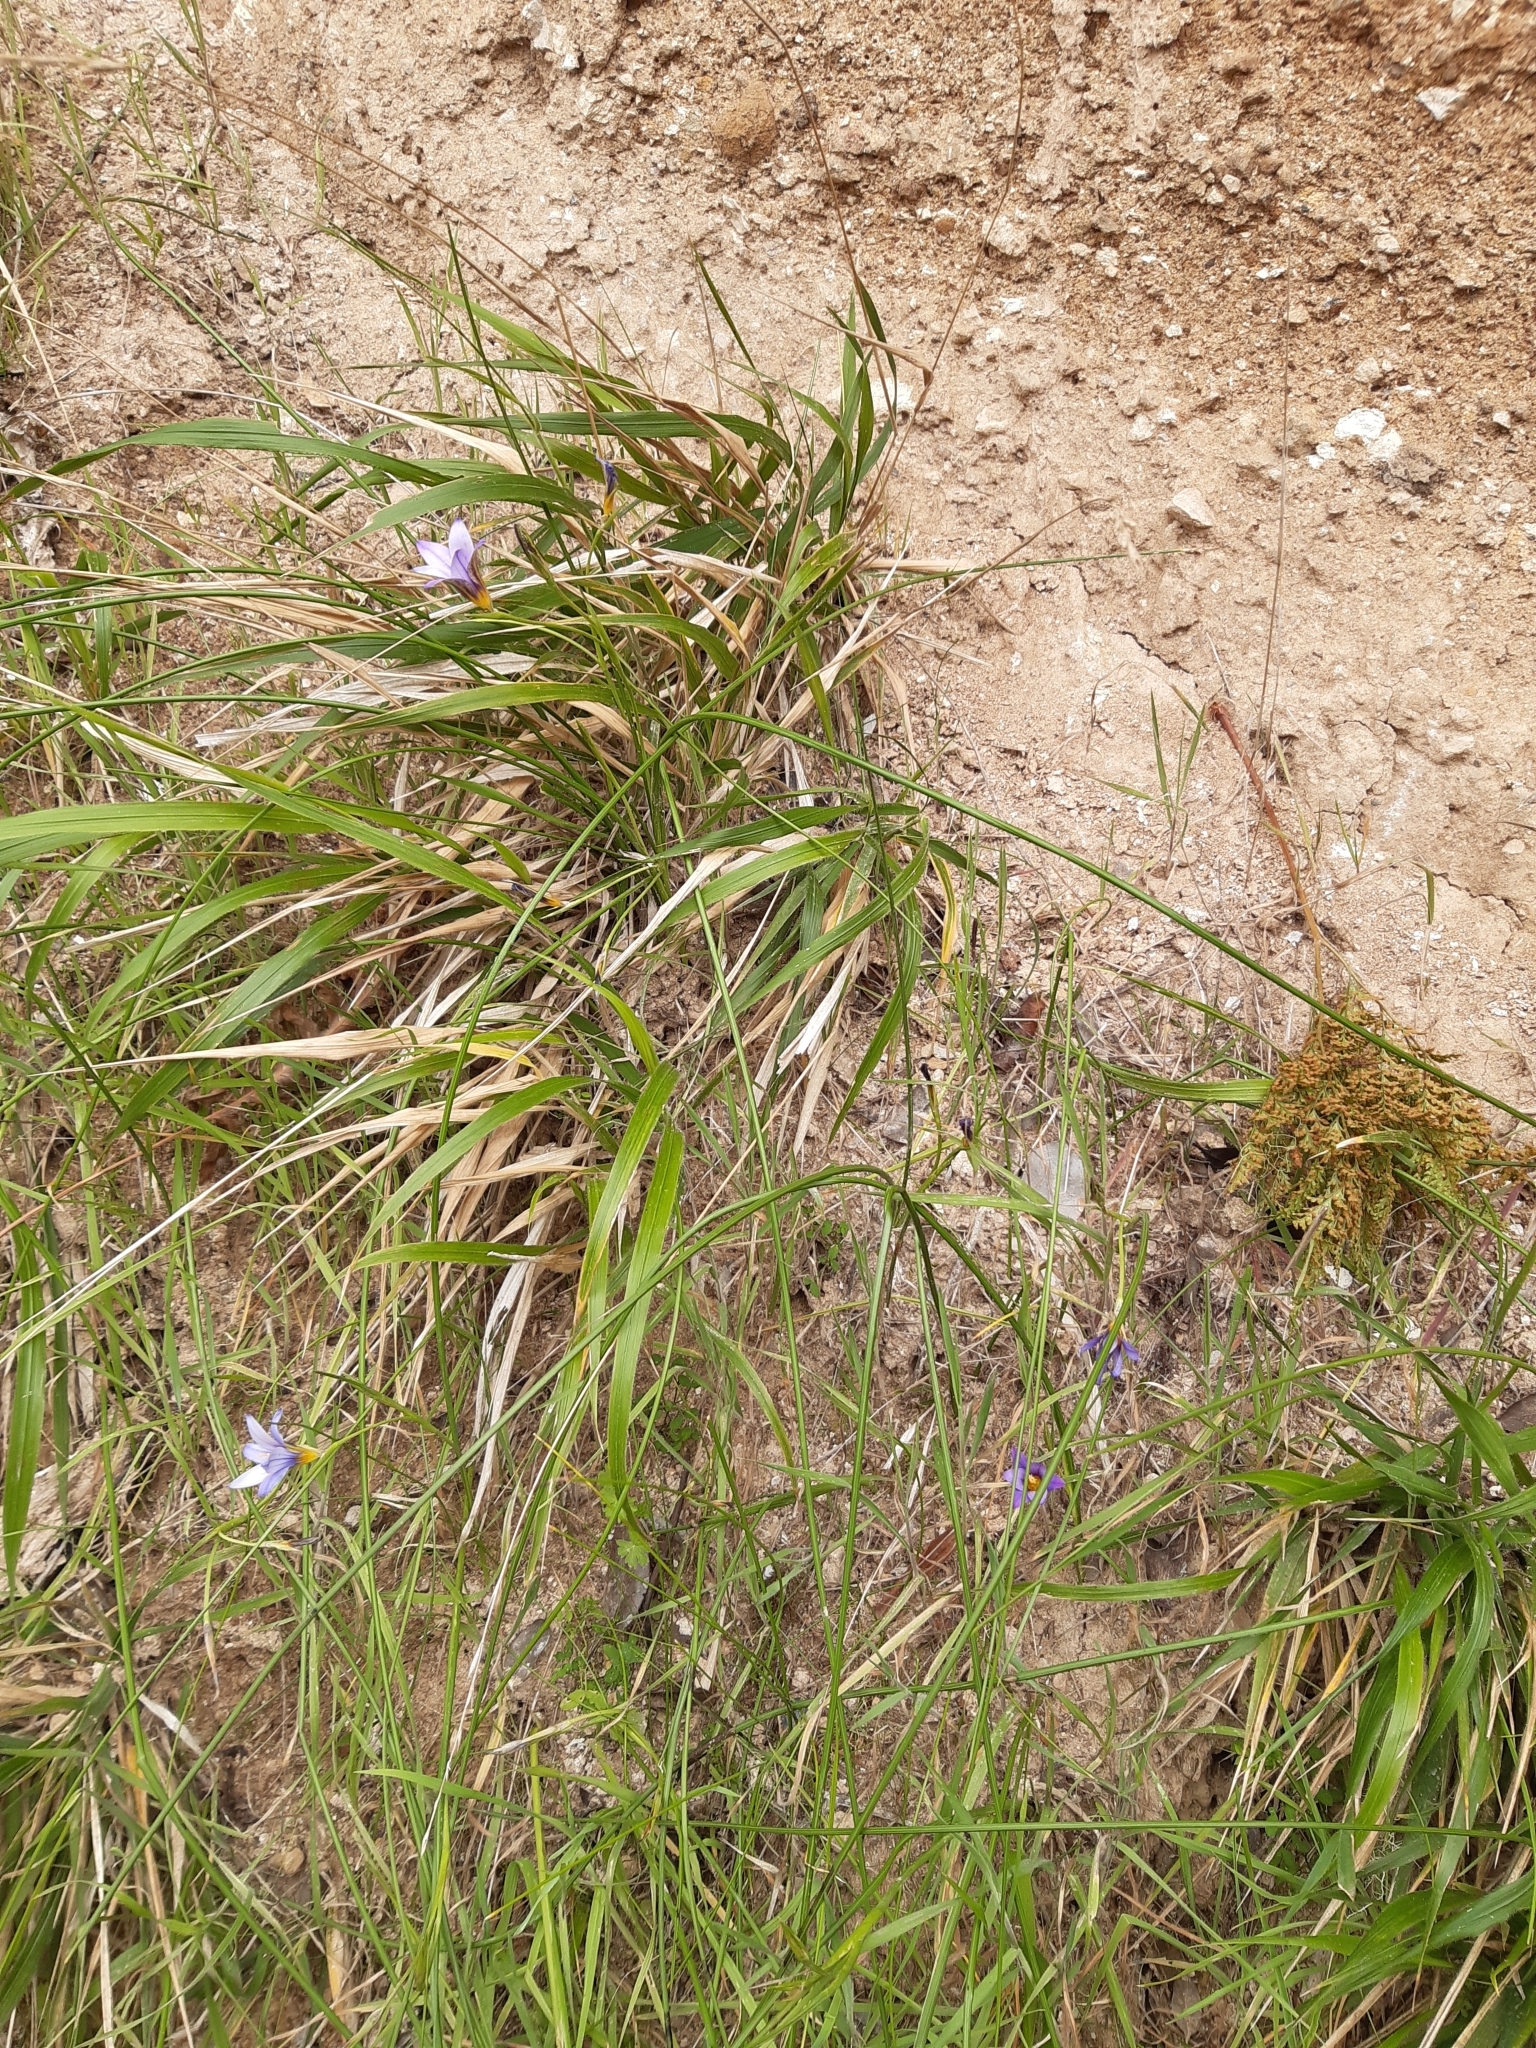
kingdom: Plantae
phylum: Tracheophyta
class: Liliopsida
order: Asparagales
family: Iridaceae
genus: Romulea
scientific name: Romulea columnae
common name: Sand-crocus
